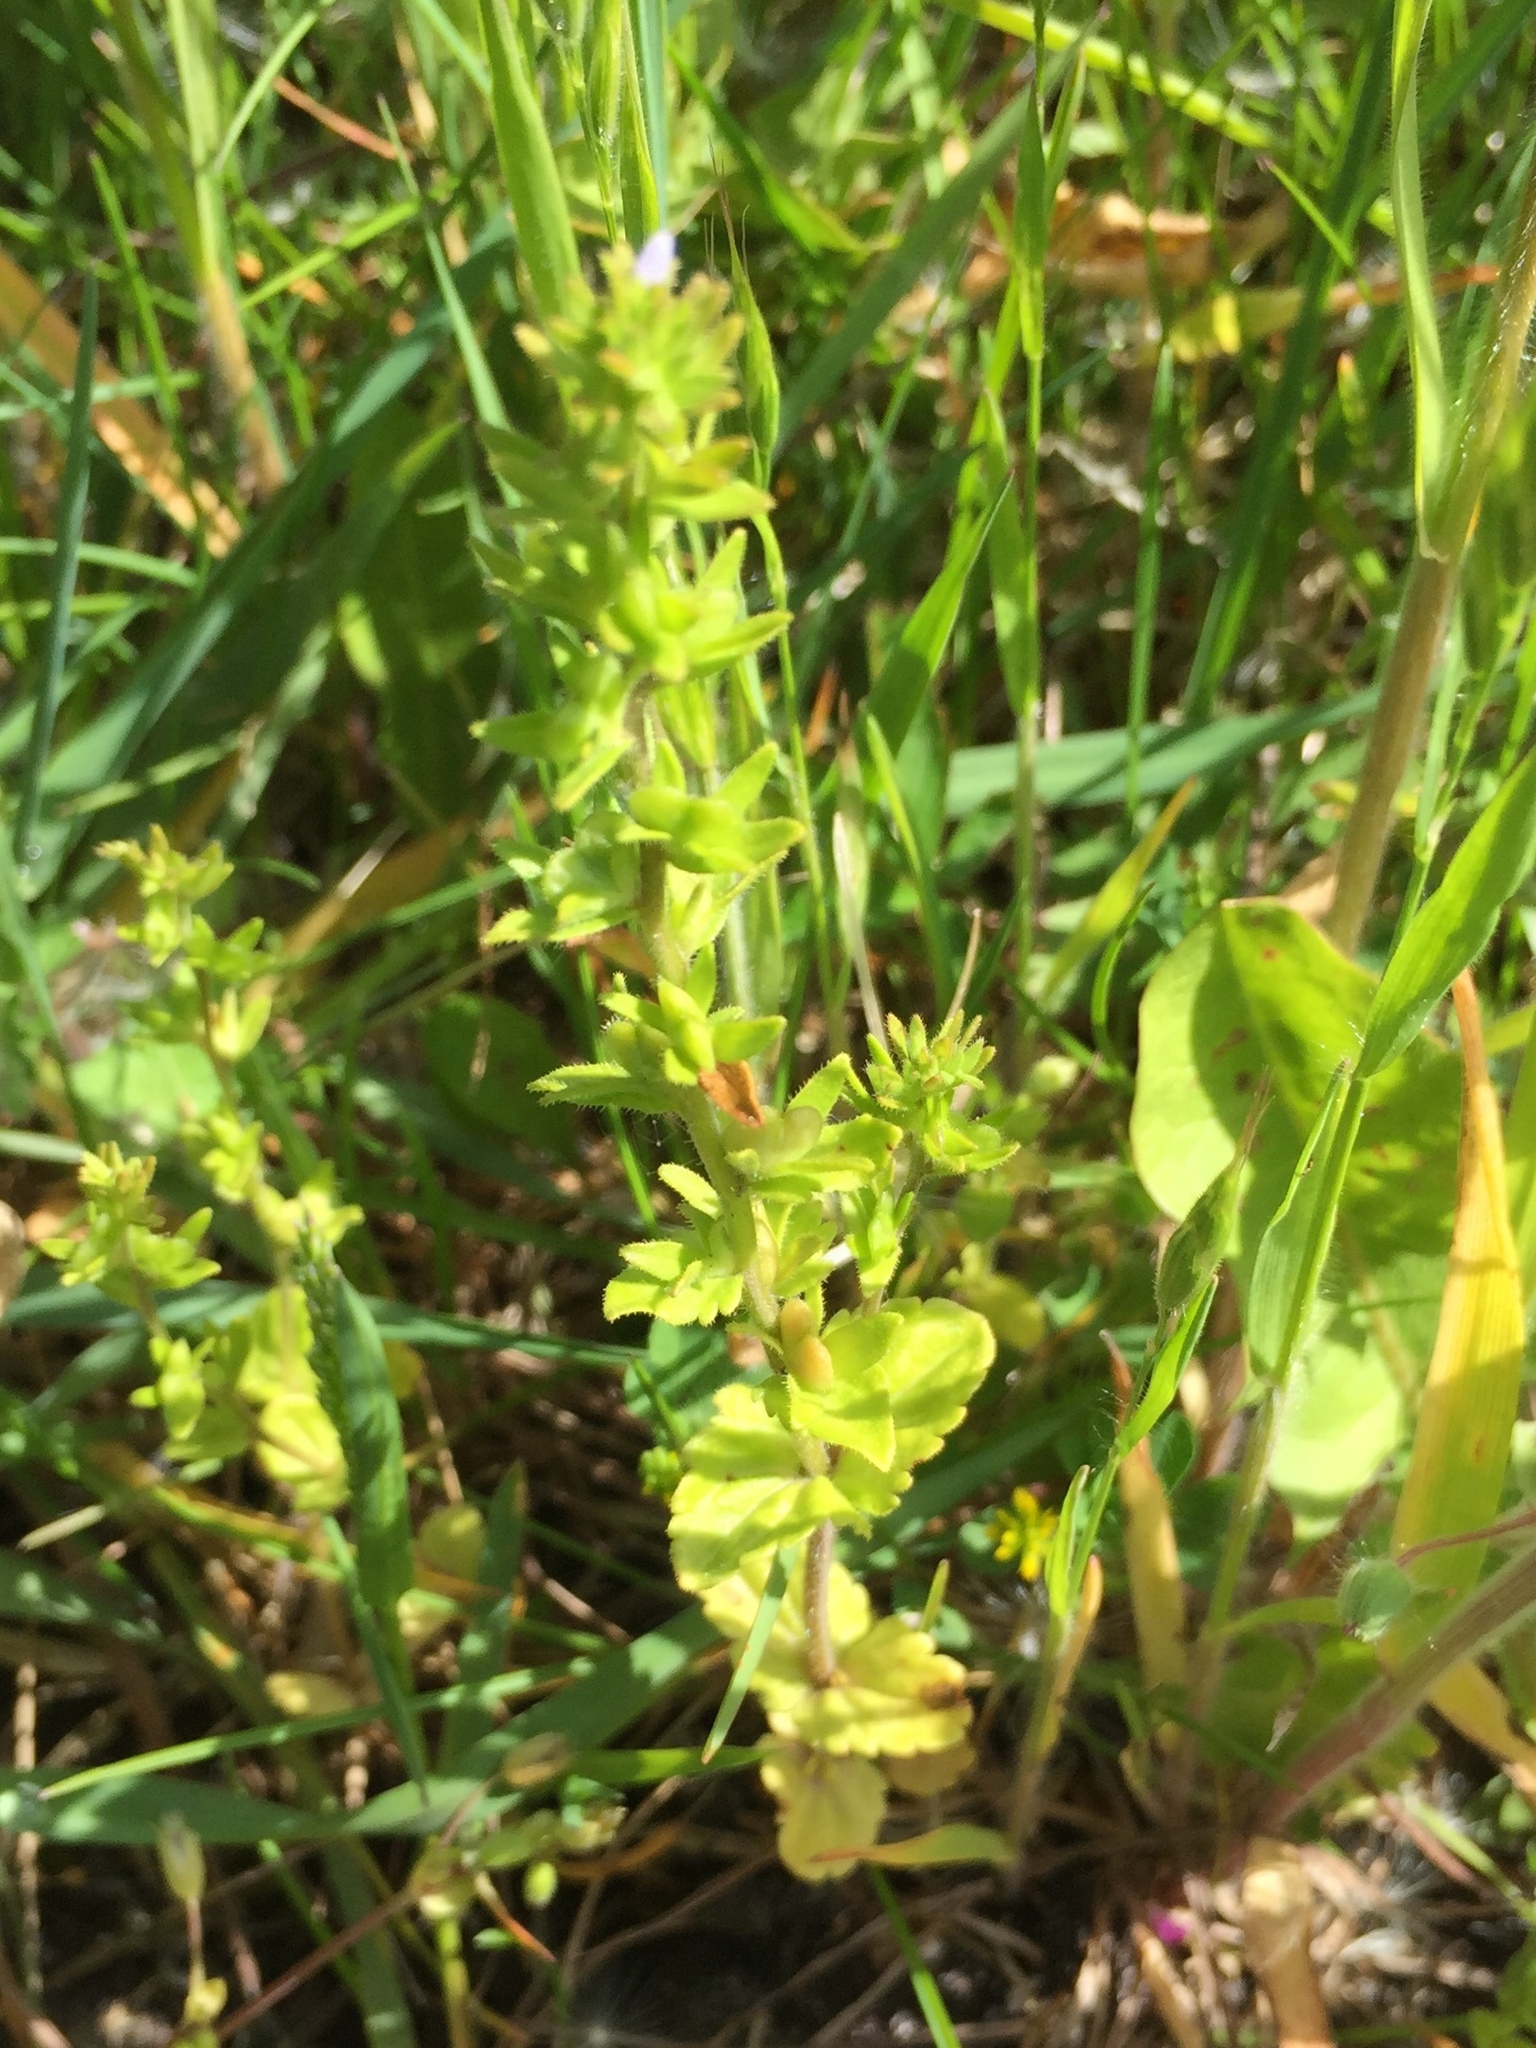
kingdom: Plantae
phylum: Tracheophyta
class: Magnoliopsida
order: Lamiales
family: Plantaginaceae
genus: Veronica
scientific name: Veronica arvensis
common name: Corn speedwell
